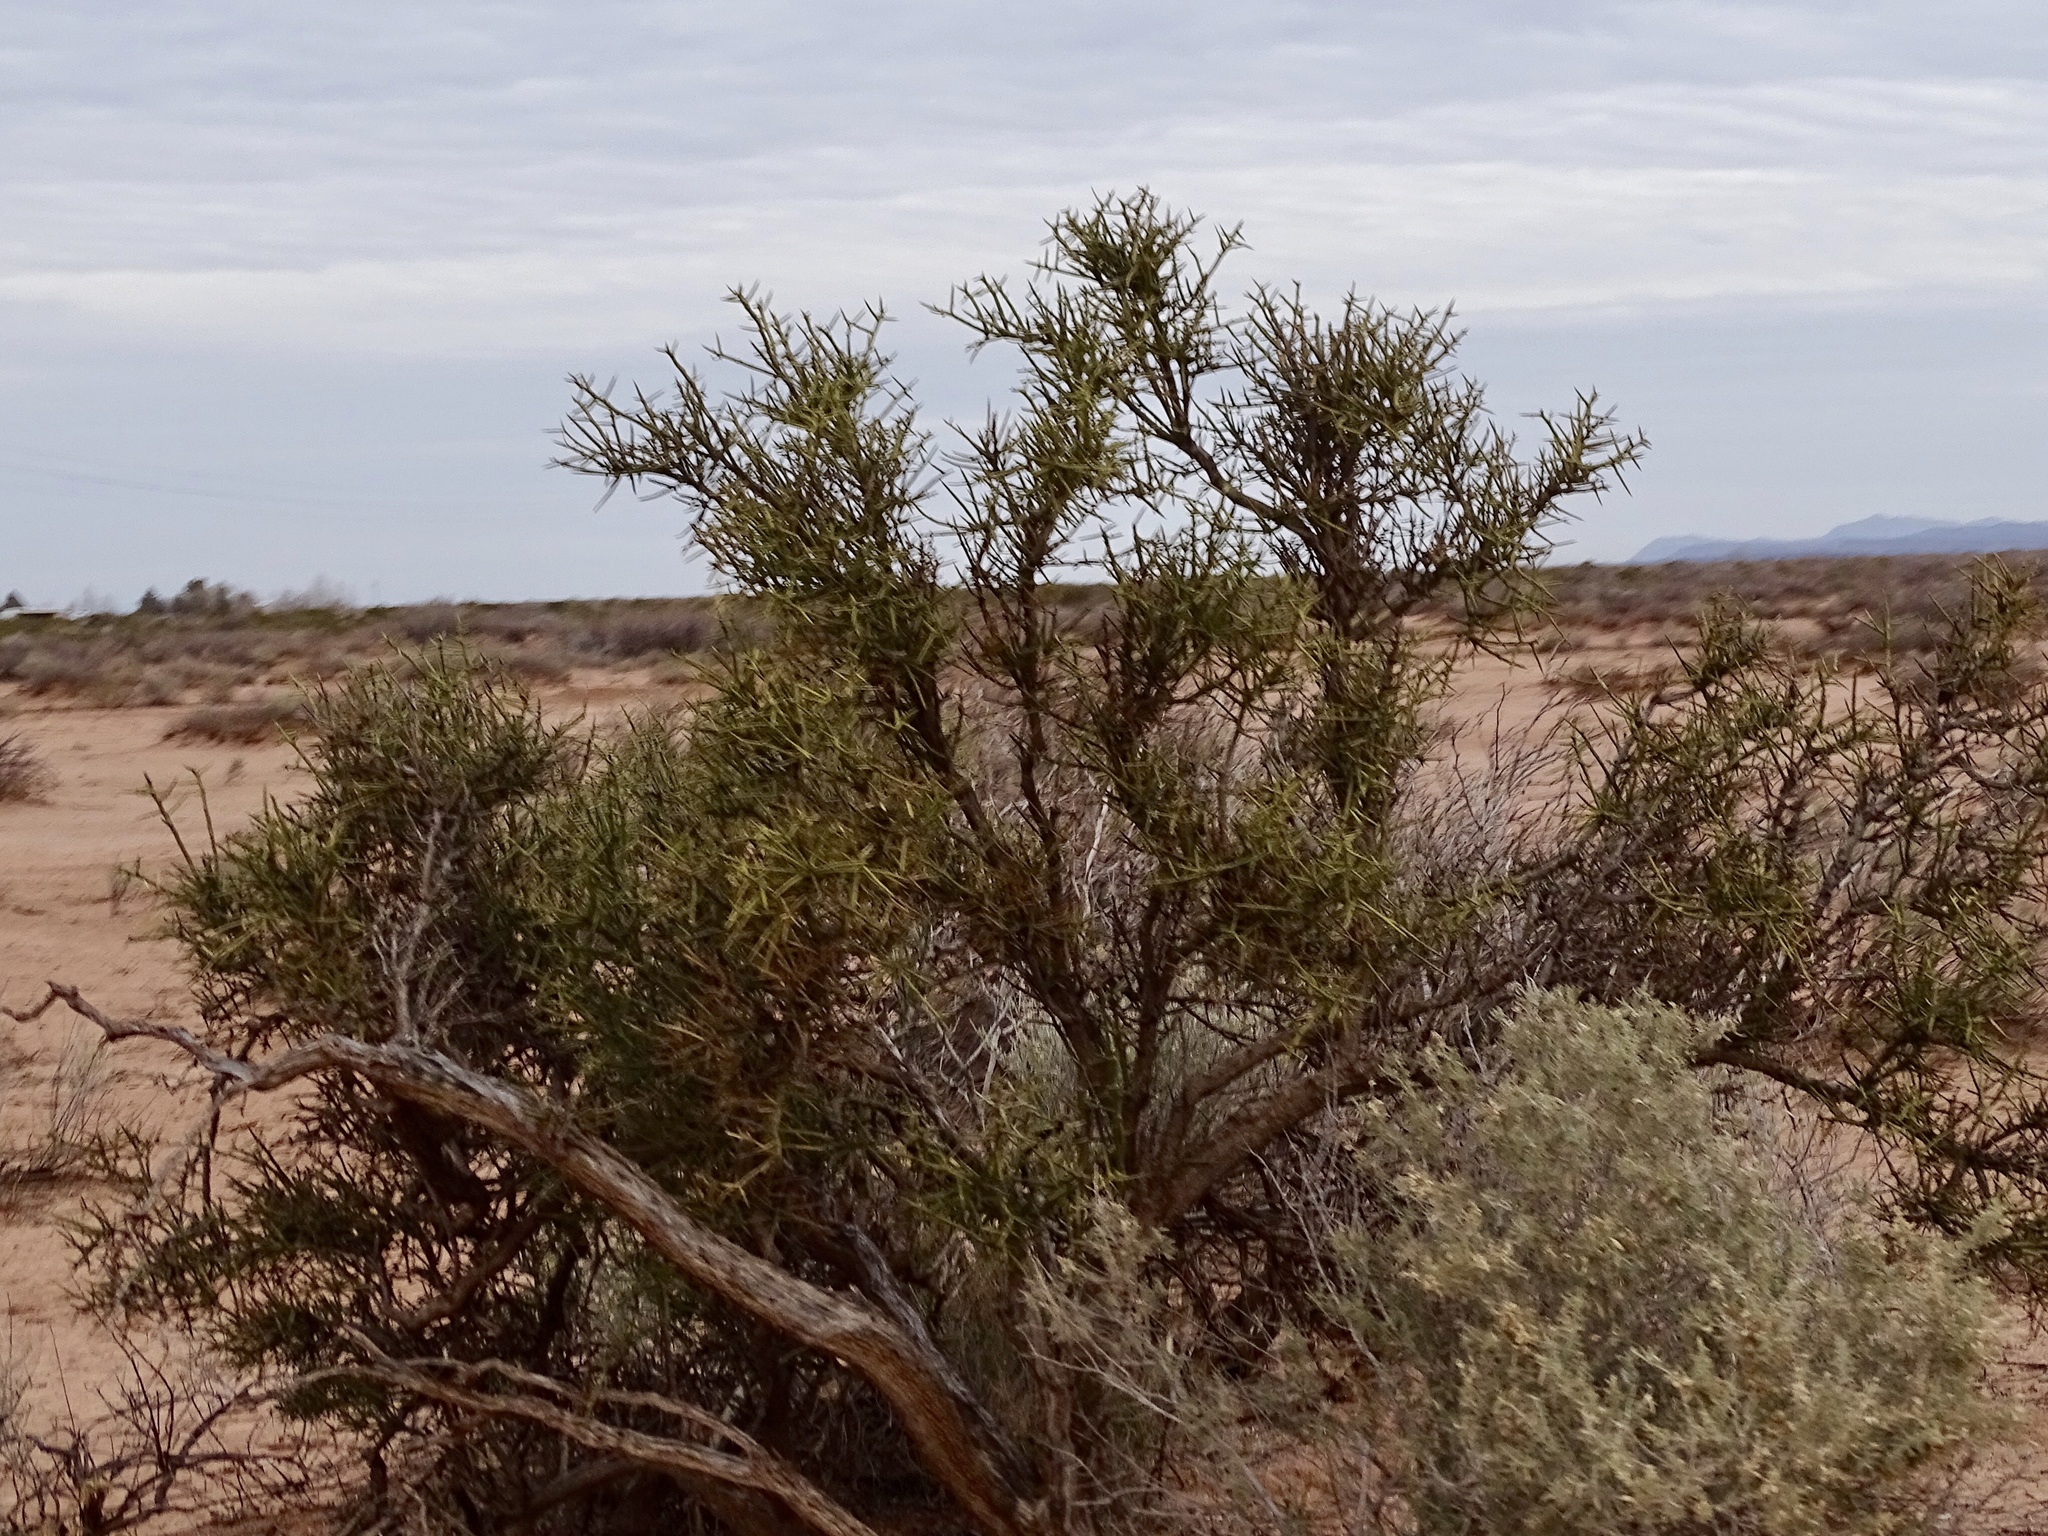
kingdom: Plantae
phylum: Tracheophyta
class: Magnoliopsida
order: Brassicales
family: Koeberliniaceae
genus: Koeberlinia
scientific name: Koeberlinia spinosa
